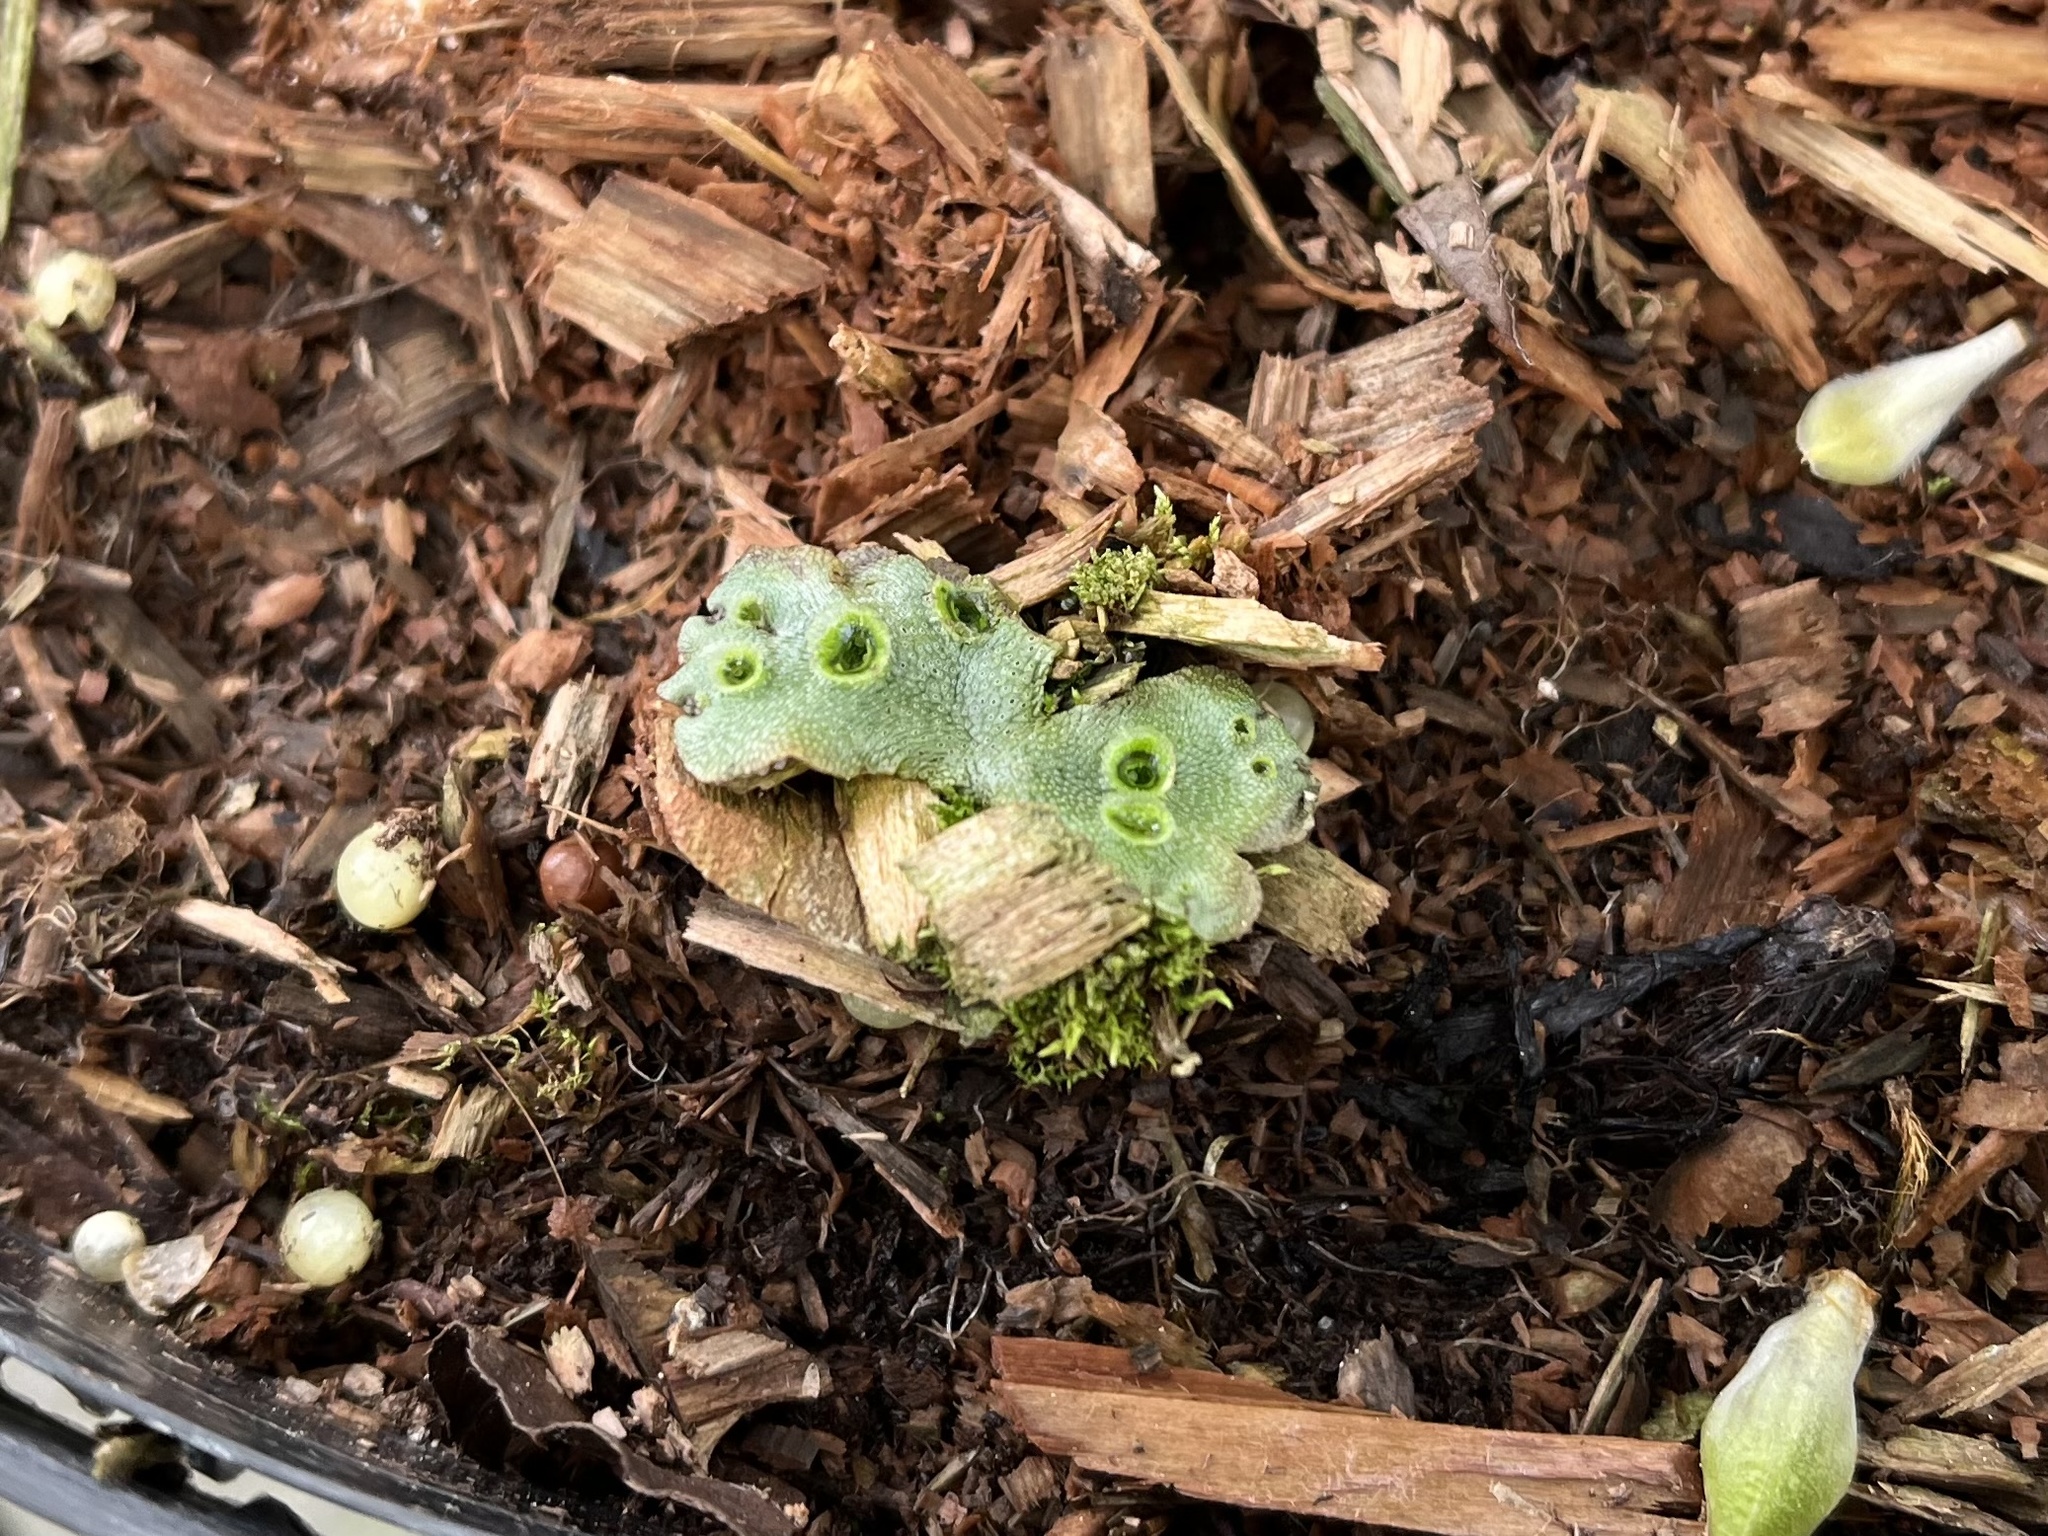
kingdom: Plantae
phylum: Marchantiophyta
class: Marchantiopsida
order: Marchantiales
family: Marchantiaceae
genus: Marchantia
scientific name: Marchantia polymorpha
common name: Common liverwort
